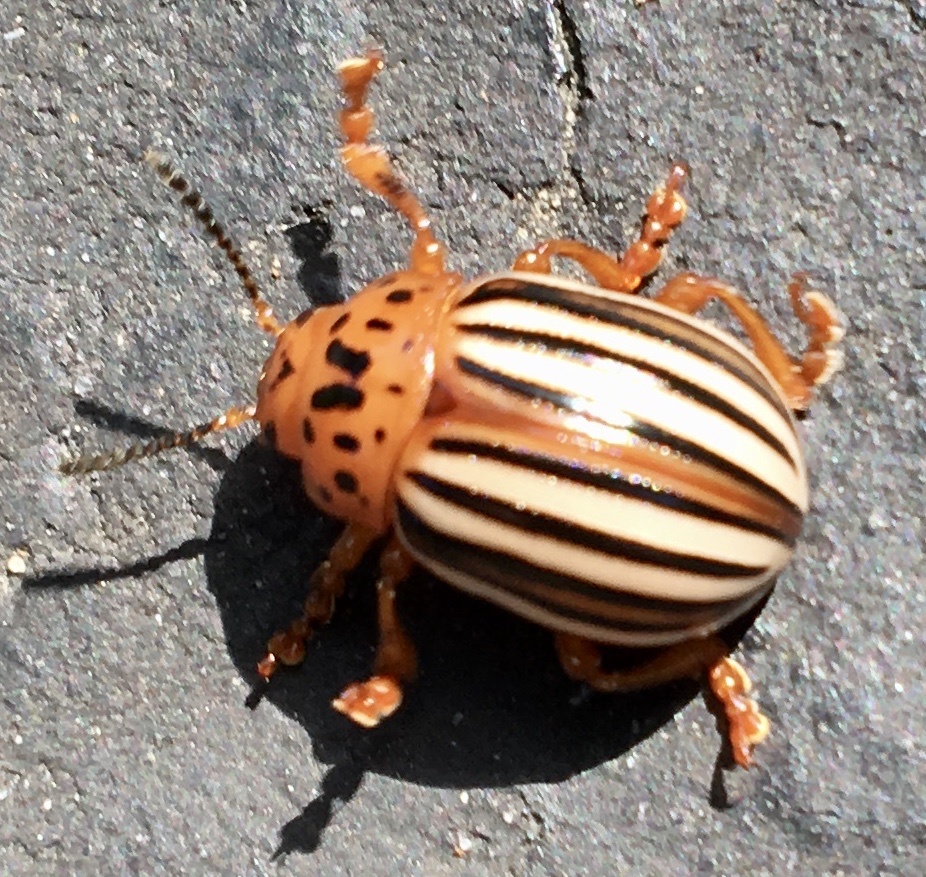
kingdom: Animalia
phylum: Arthropoda
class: Insecta
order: Coleoptera
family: Chrysomelidae
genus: Leptinotarsa
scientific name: Leptinotarsa juncta
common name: False potato beetle
